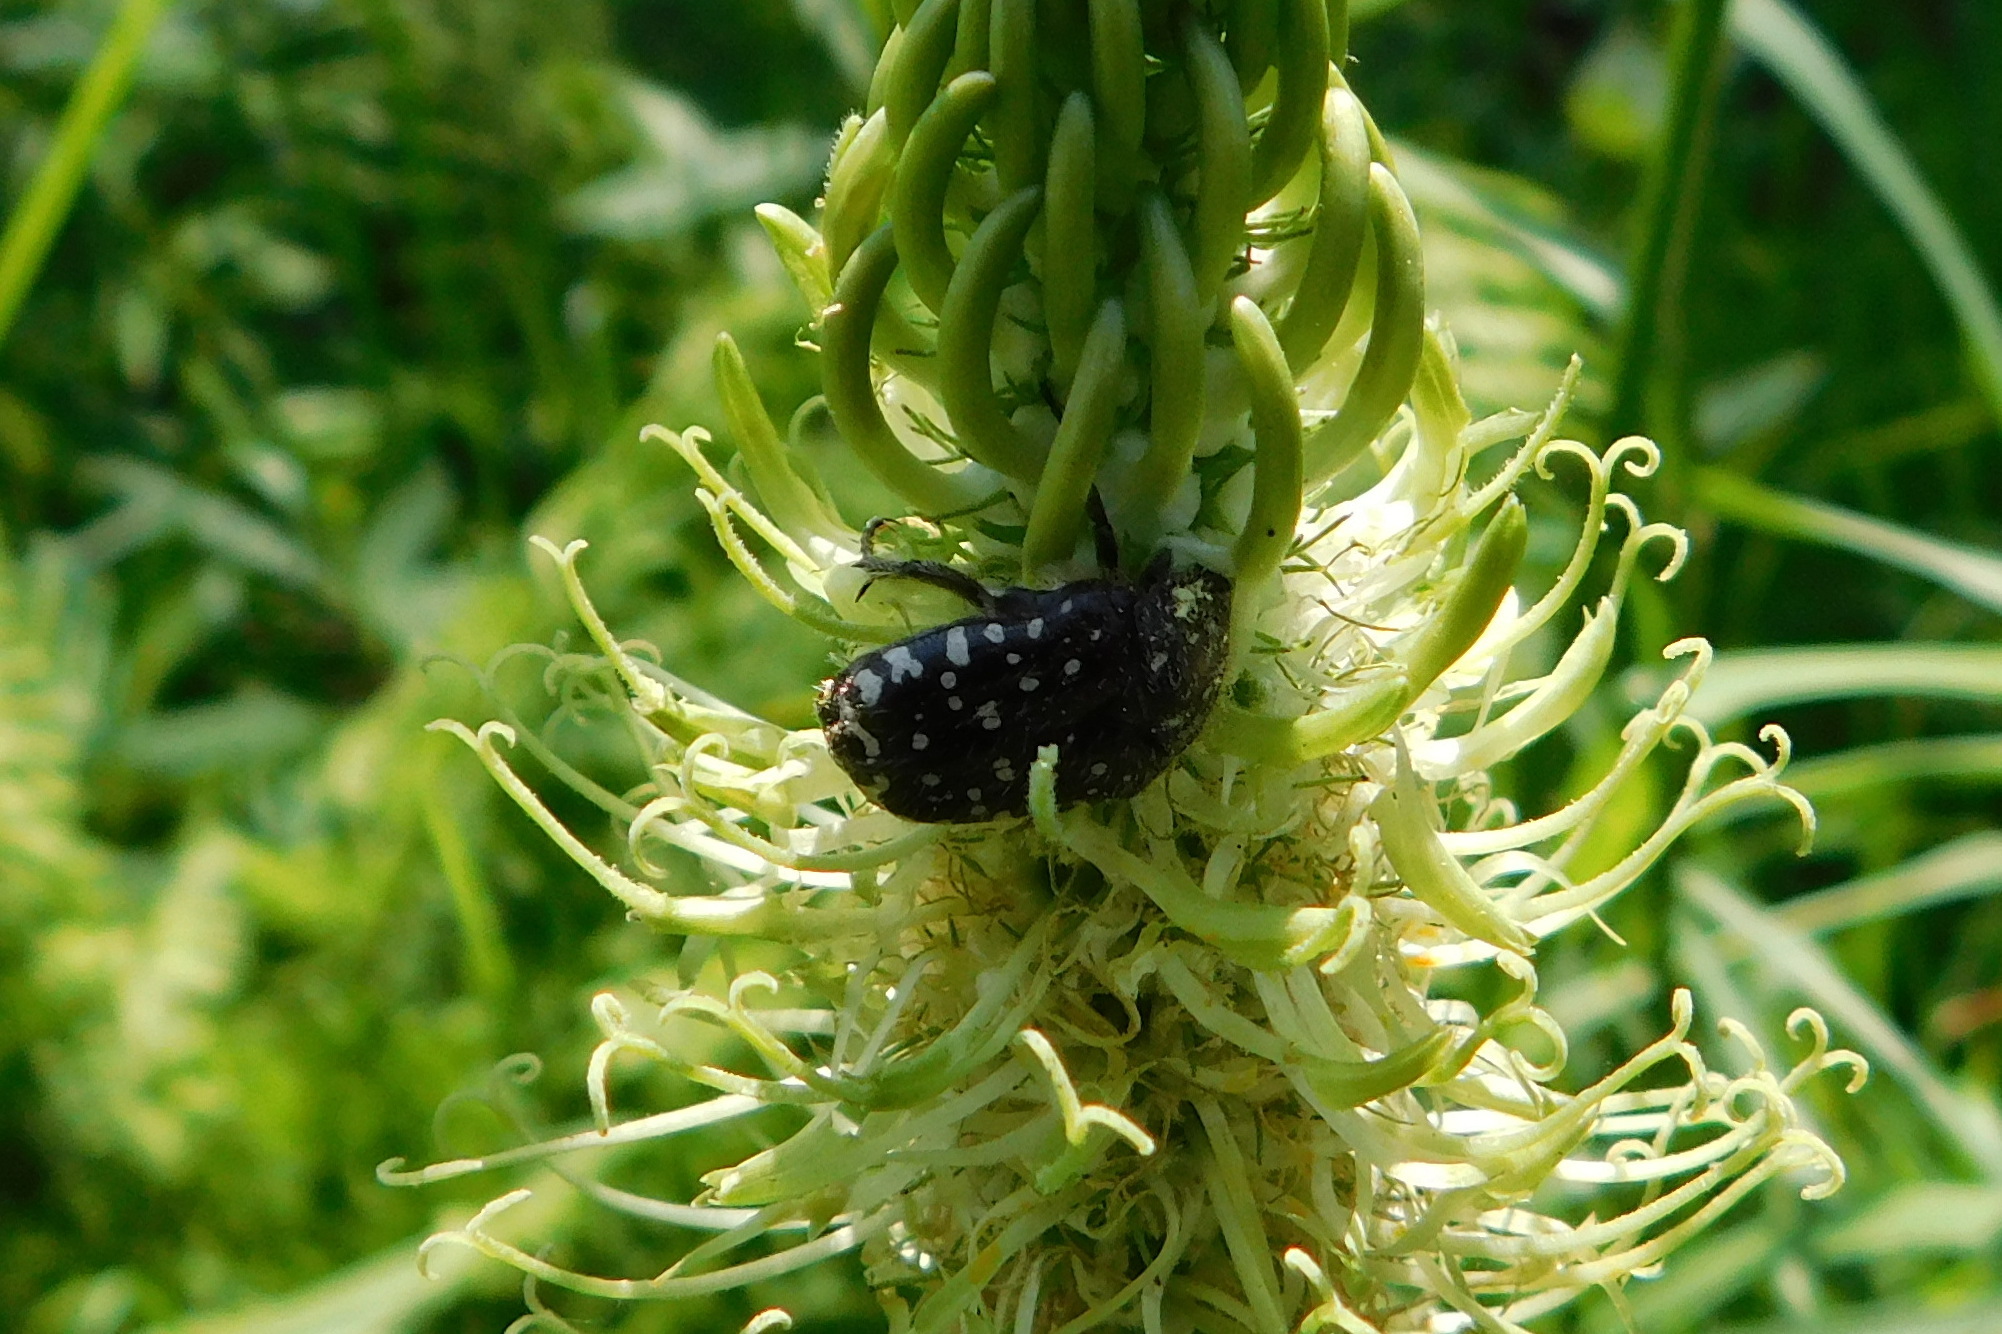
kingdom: Animalia
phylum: Arthropoda
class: Insecta
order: Coleoptera
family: Scarabaeidae
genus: Oxythyrea
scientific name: Oxythyrea funesta
